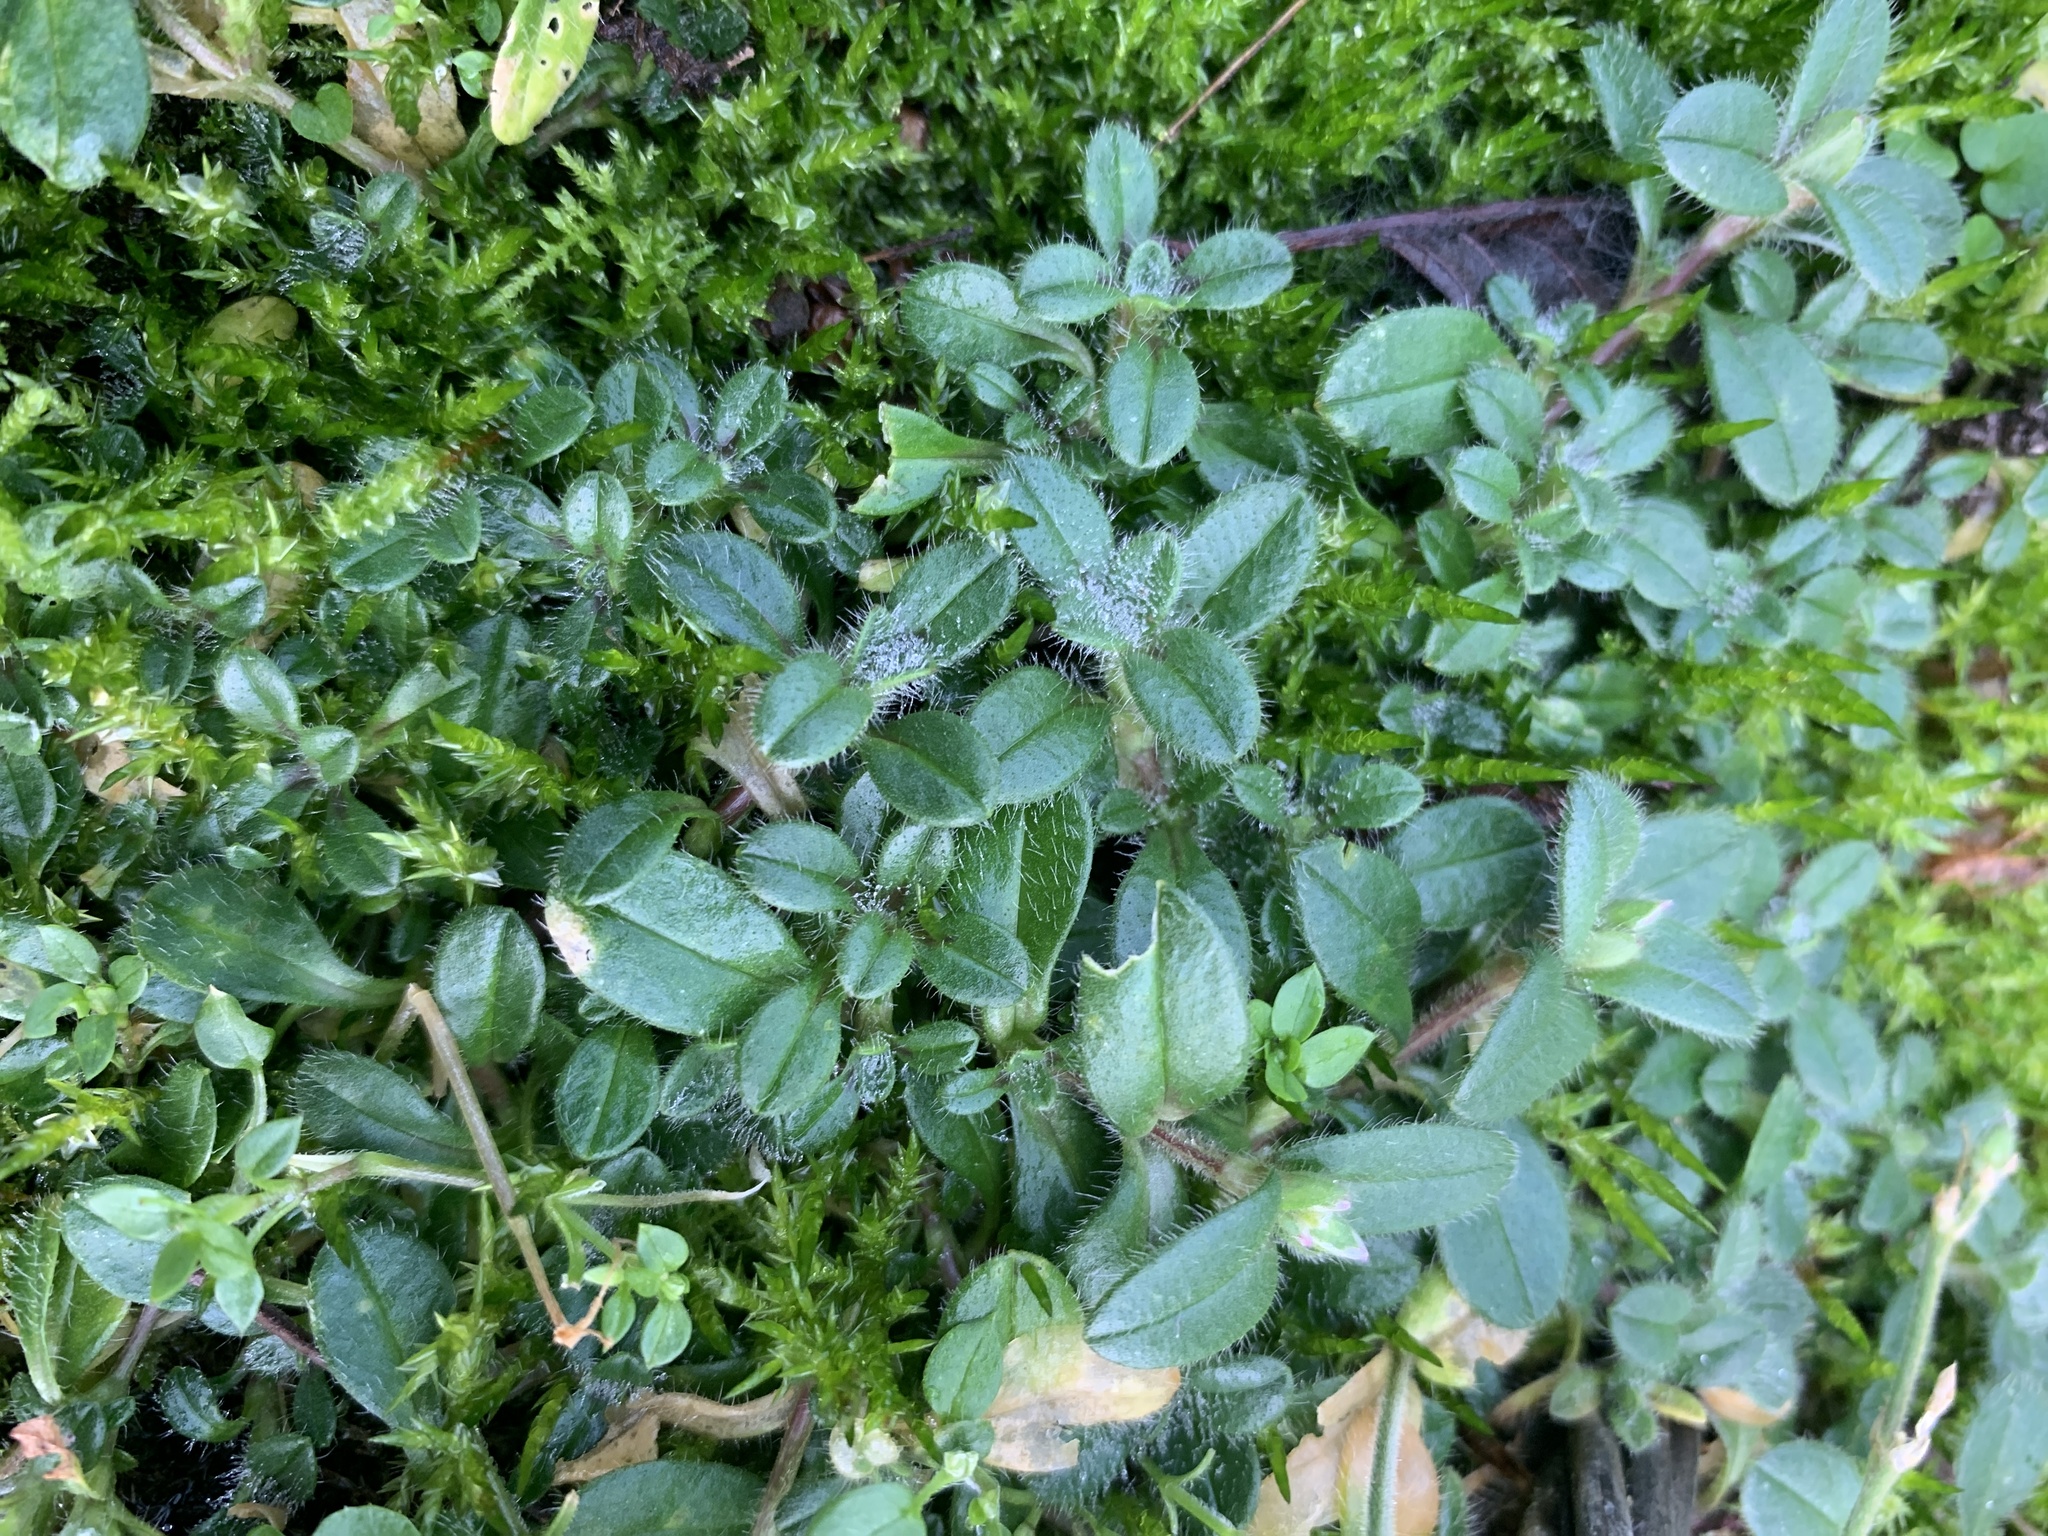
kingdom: Plantae
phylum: Tracheophyta
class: Magnoliopsida
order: Caryophyllales
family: Caryophyllaceae
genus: Cerastium
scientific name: Cerastium fontanum
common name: Common mouse-ear
